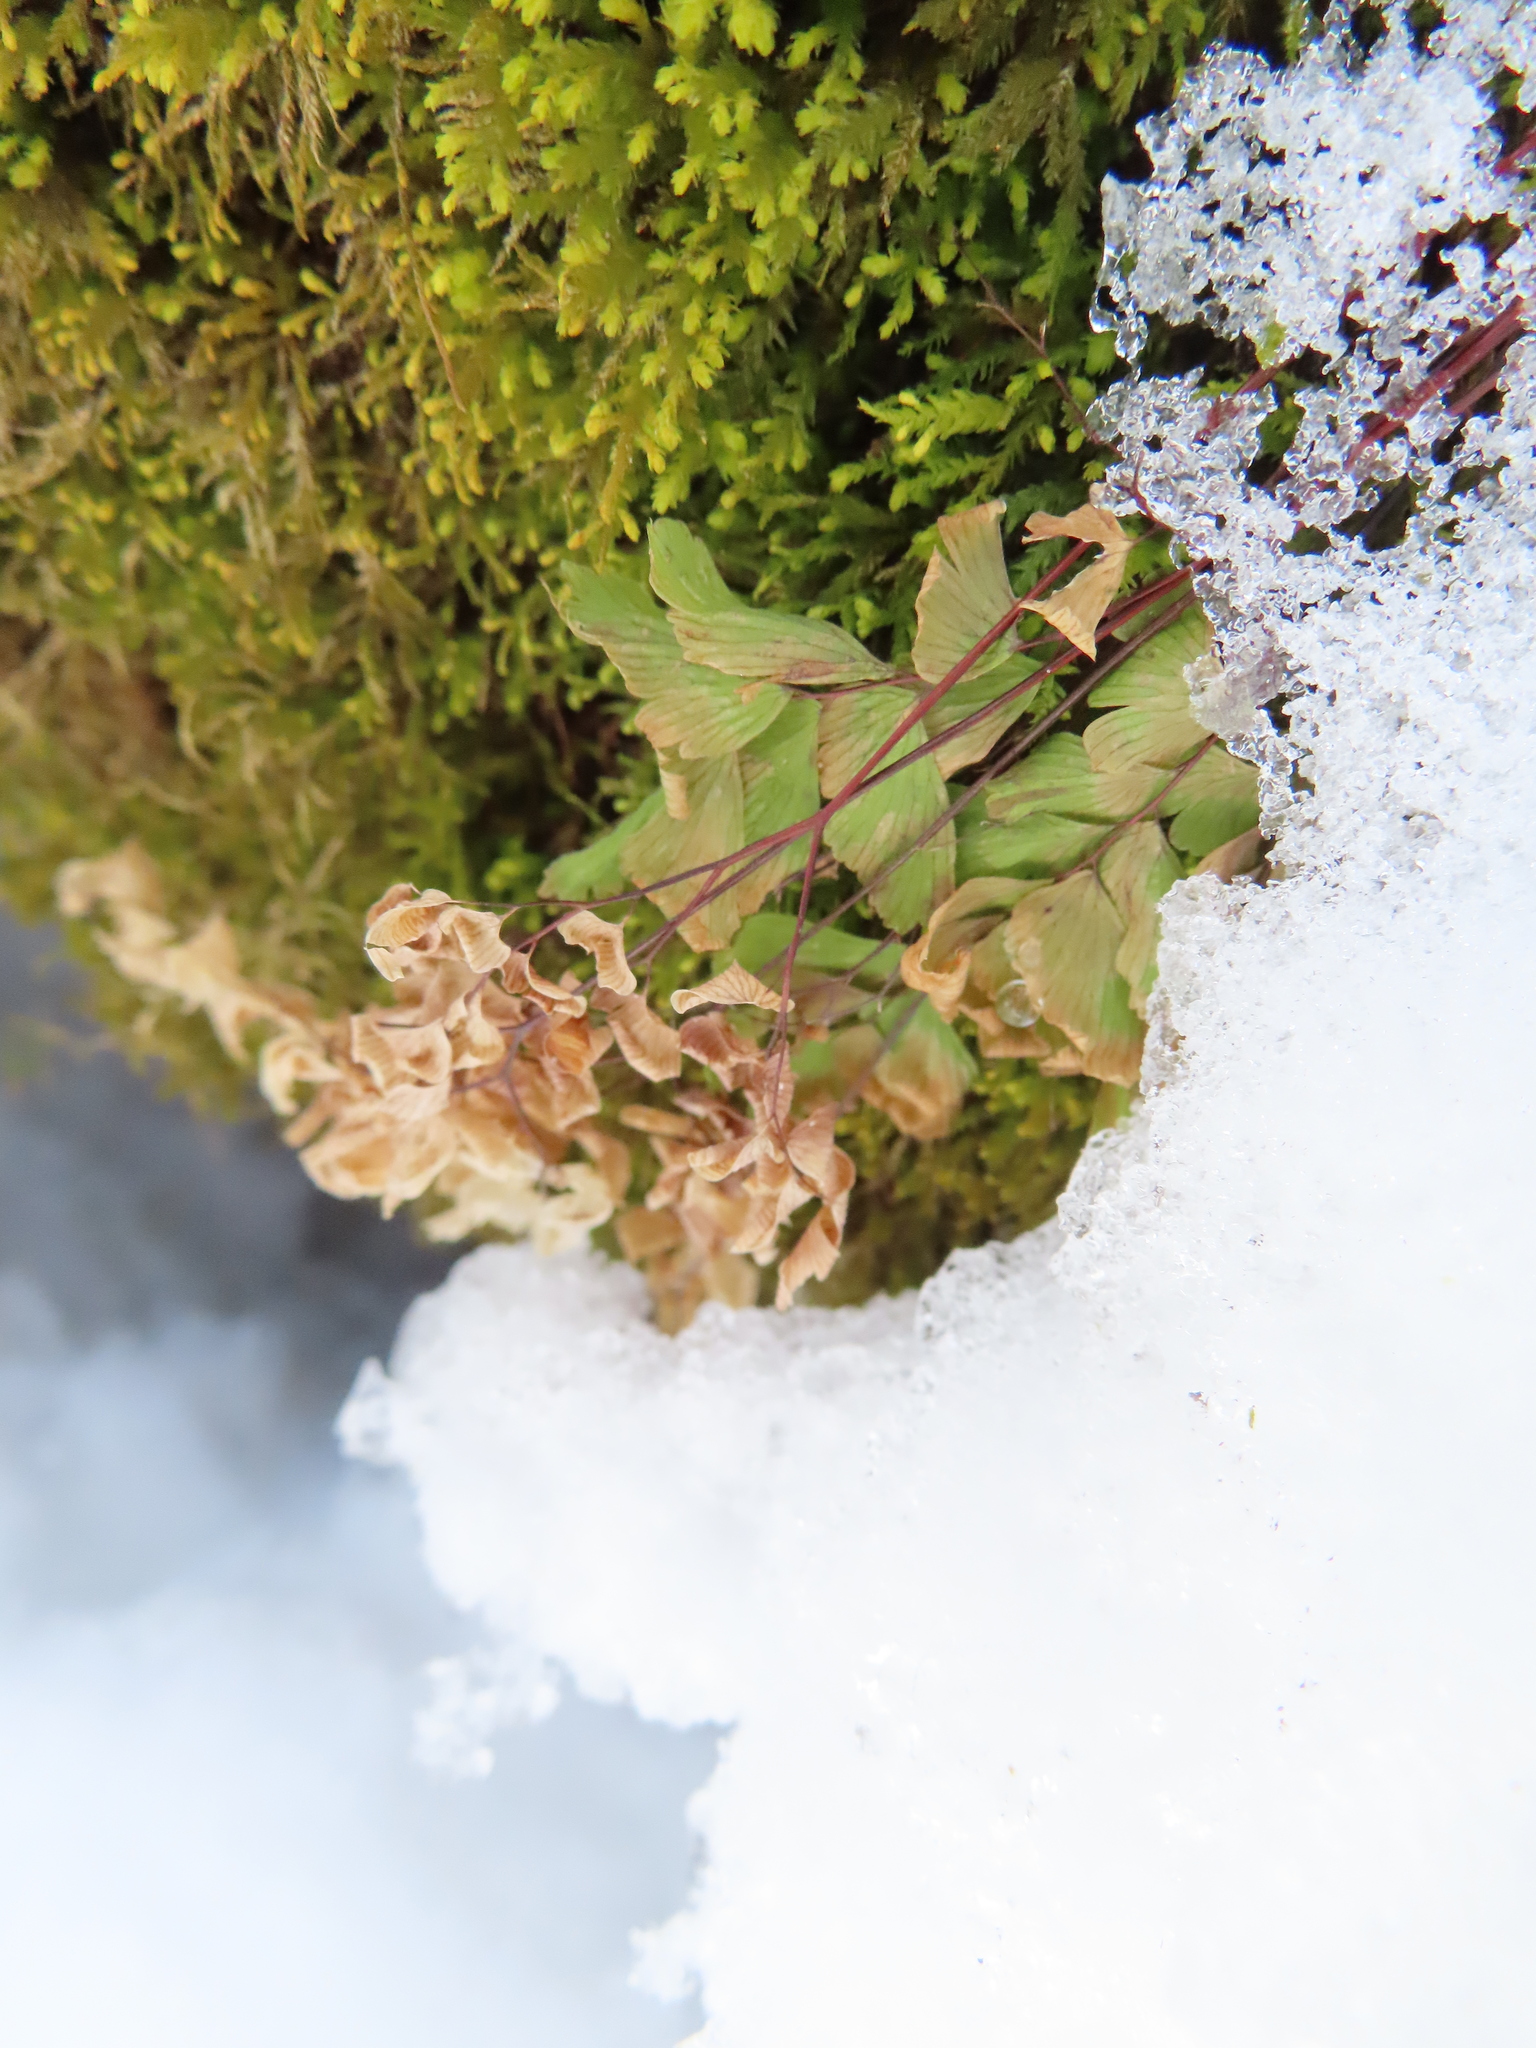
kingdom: Plantae
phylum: Tracheophyta
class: Polypodiopsida
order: Polypodiales
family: Pteridaceae
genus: Adiantum
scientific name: Adiantum pedatum
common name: Five-finger fern
